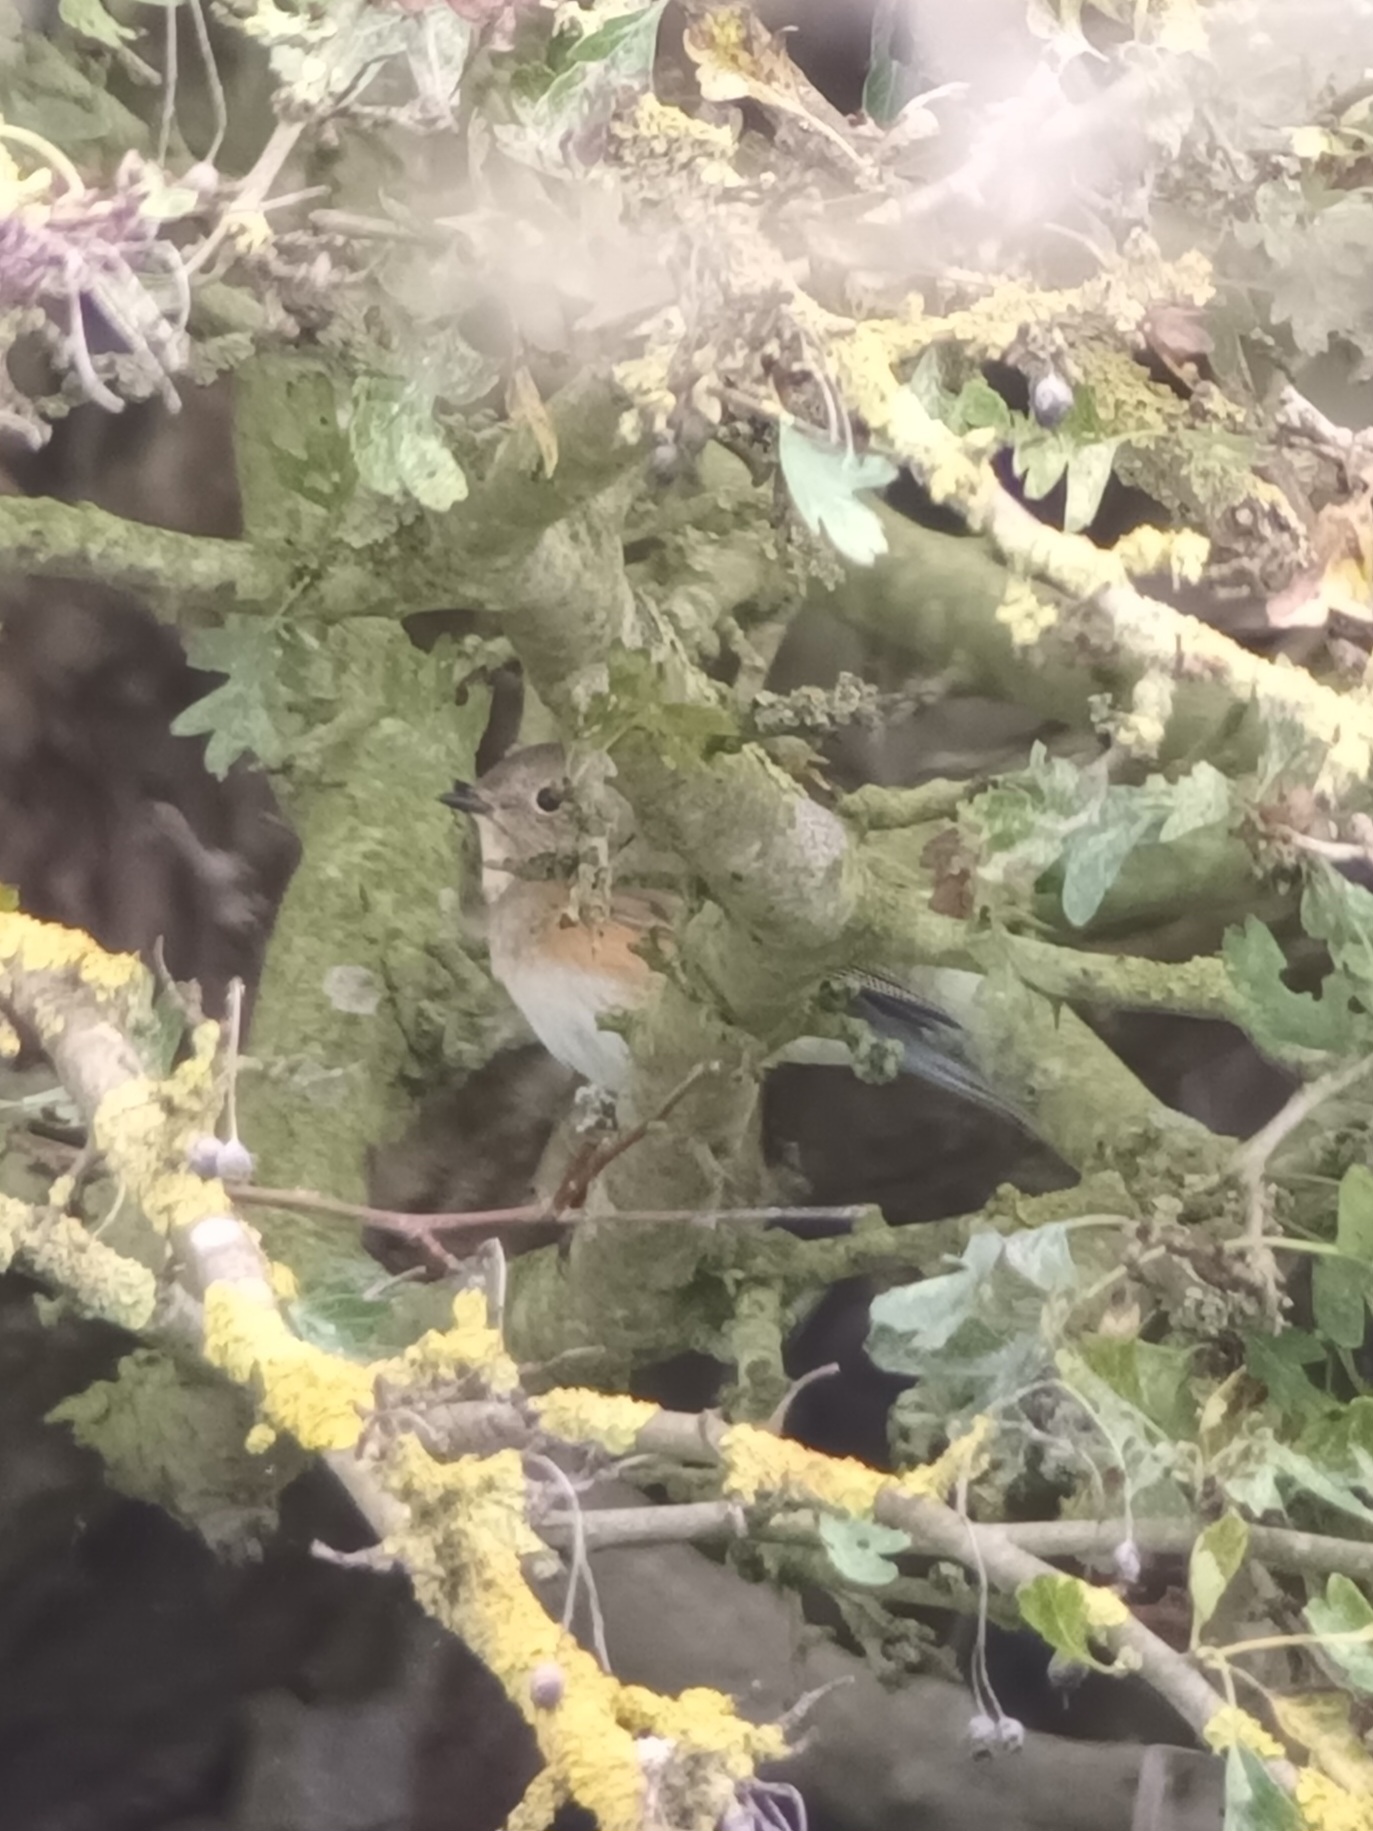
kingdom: Animalia
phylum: Chordata
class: Aves
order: Passeriformes
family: Muscicapidae
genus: Tarsiger
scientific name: Tarsiger cyanurus
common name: Red-flanked bluetail
